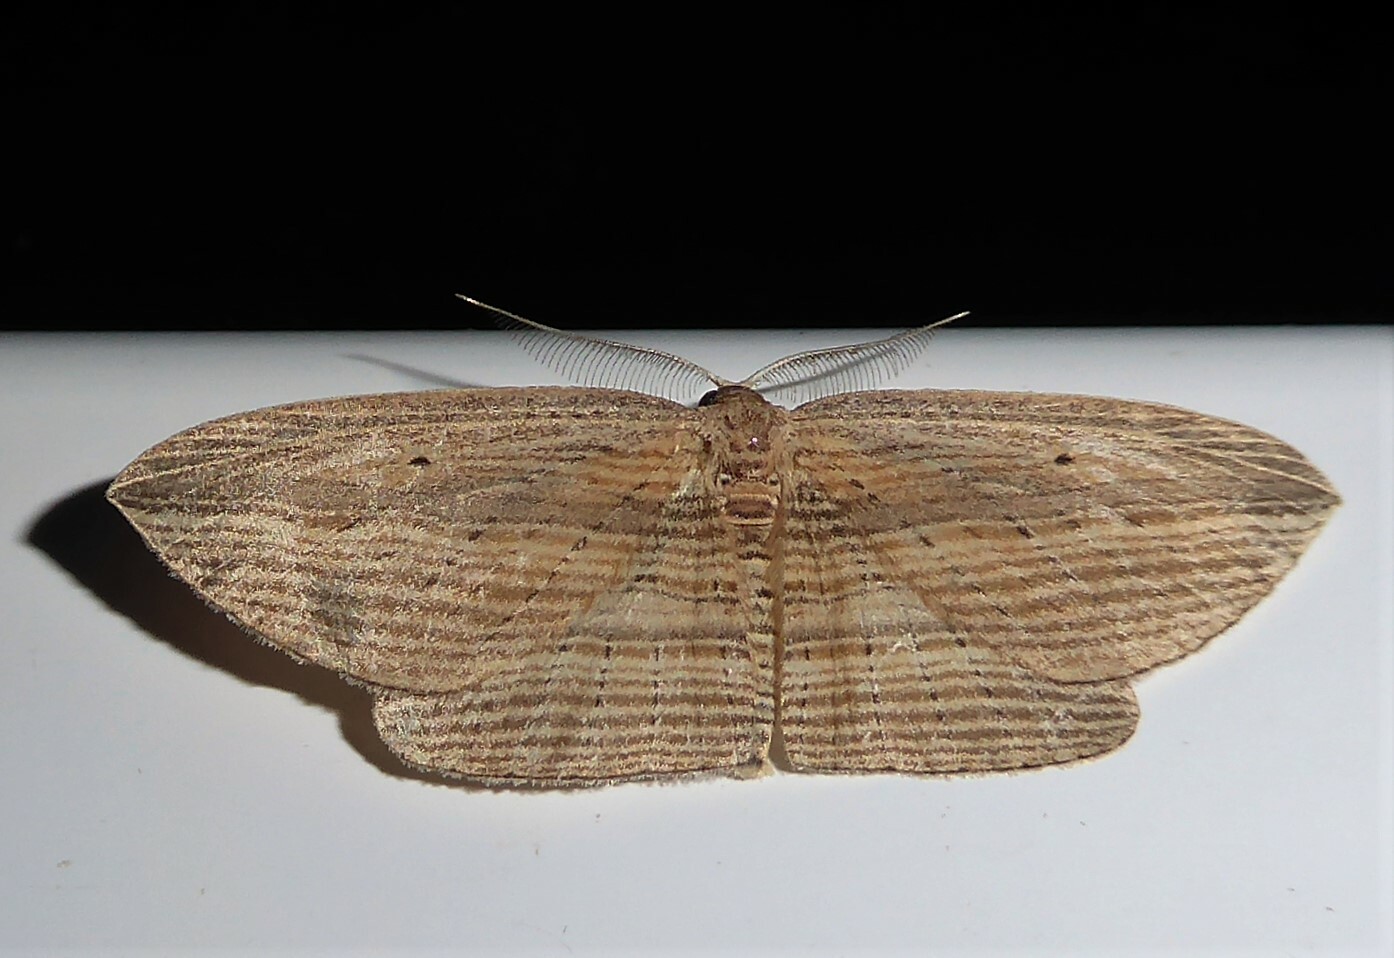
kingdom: Animalia
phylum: Arthropoda
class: Insecta
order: Lepidoptera
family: Geometridae
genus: Epiphryne
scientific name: Epiphryne verriculata
